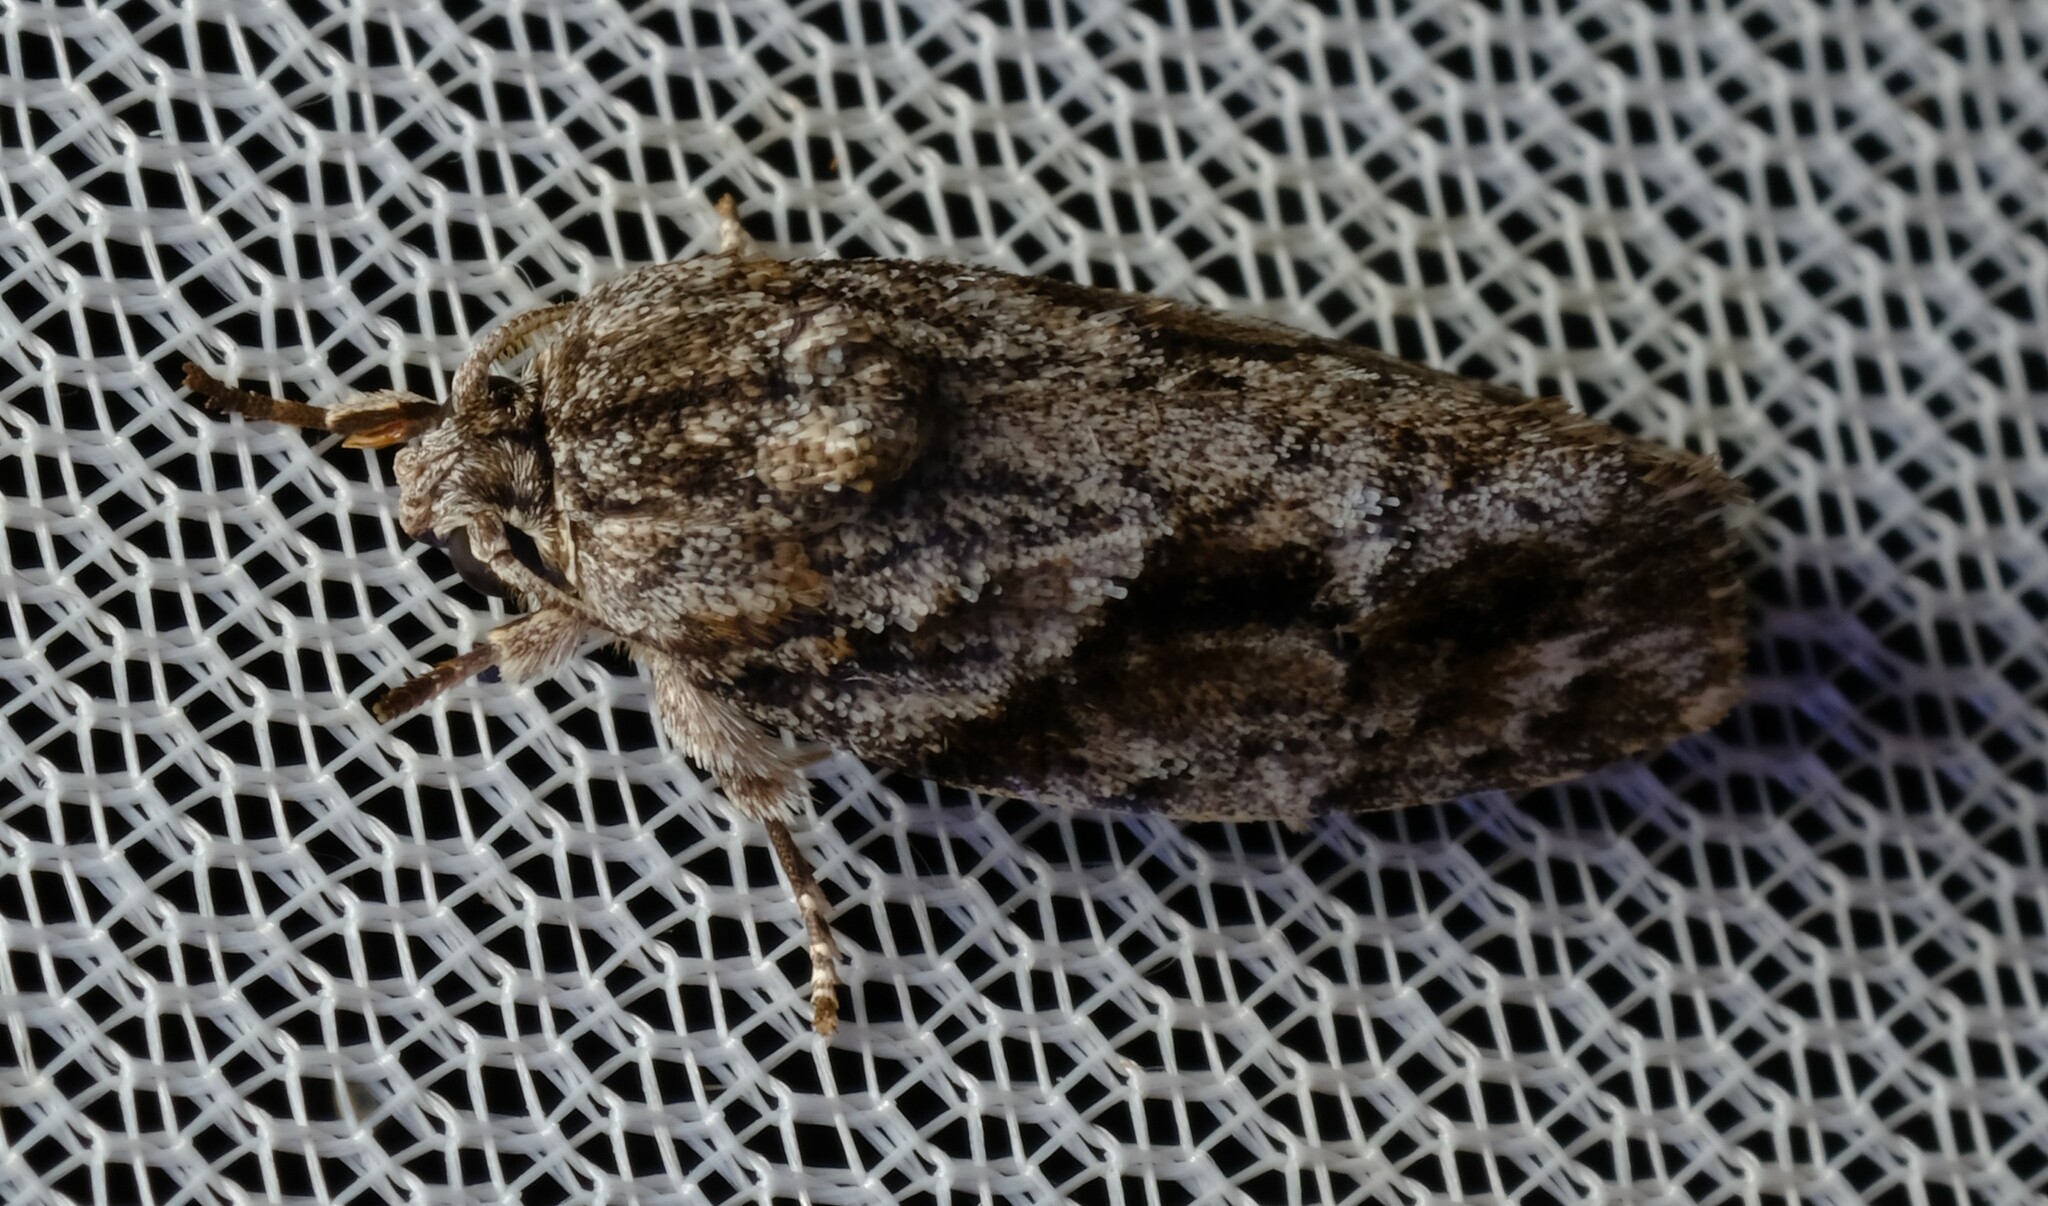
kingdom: Animalia
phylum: Arthropoda
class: Insecta
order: Lepidoptera
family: Depressariidae
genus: Agriophara
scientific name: Agriophara confertella
